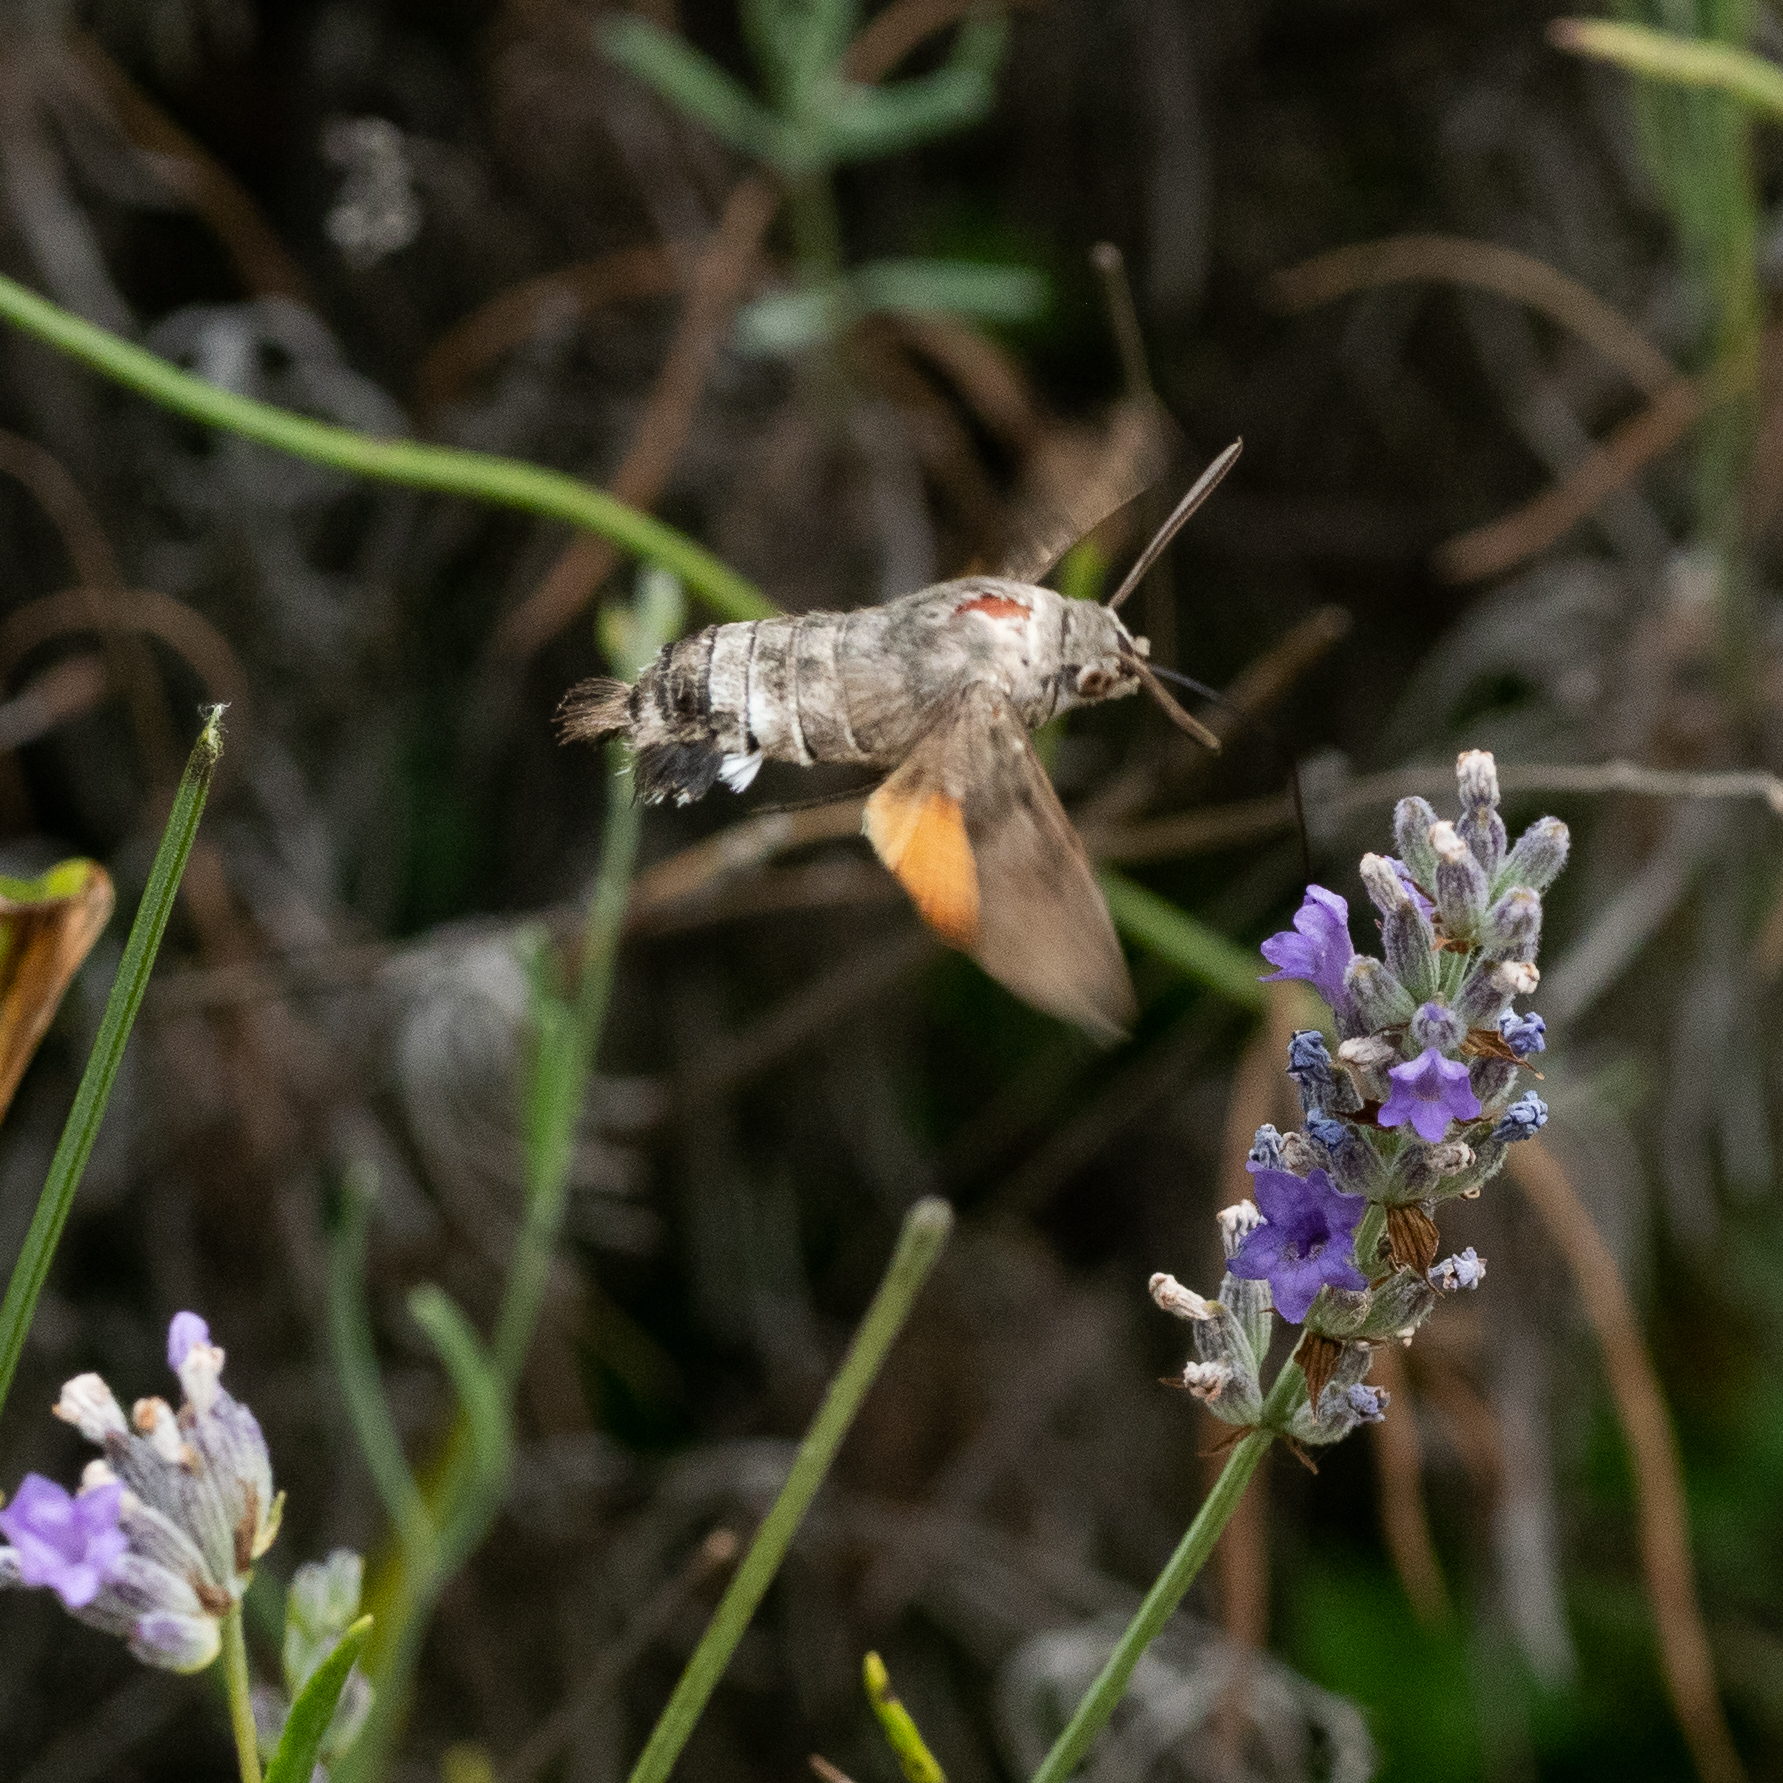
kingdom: Animalia
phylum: Arthropoda
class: Insecta
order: Lepidoptera
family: Sphingidae
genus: Macroglossum
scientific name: Macroglossum stellatarum
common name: Humming-bird hawk-moth
